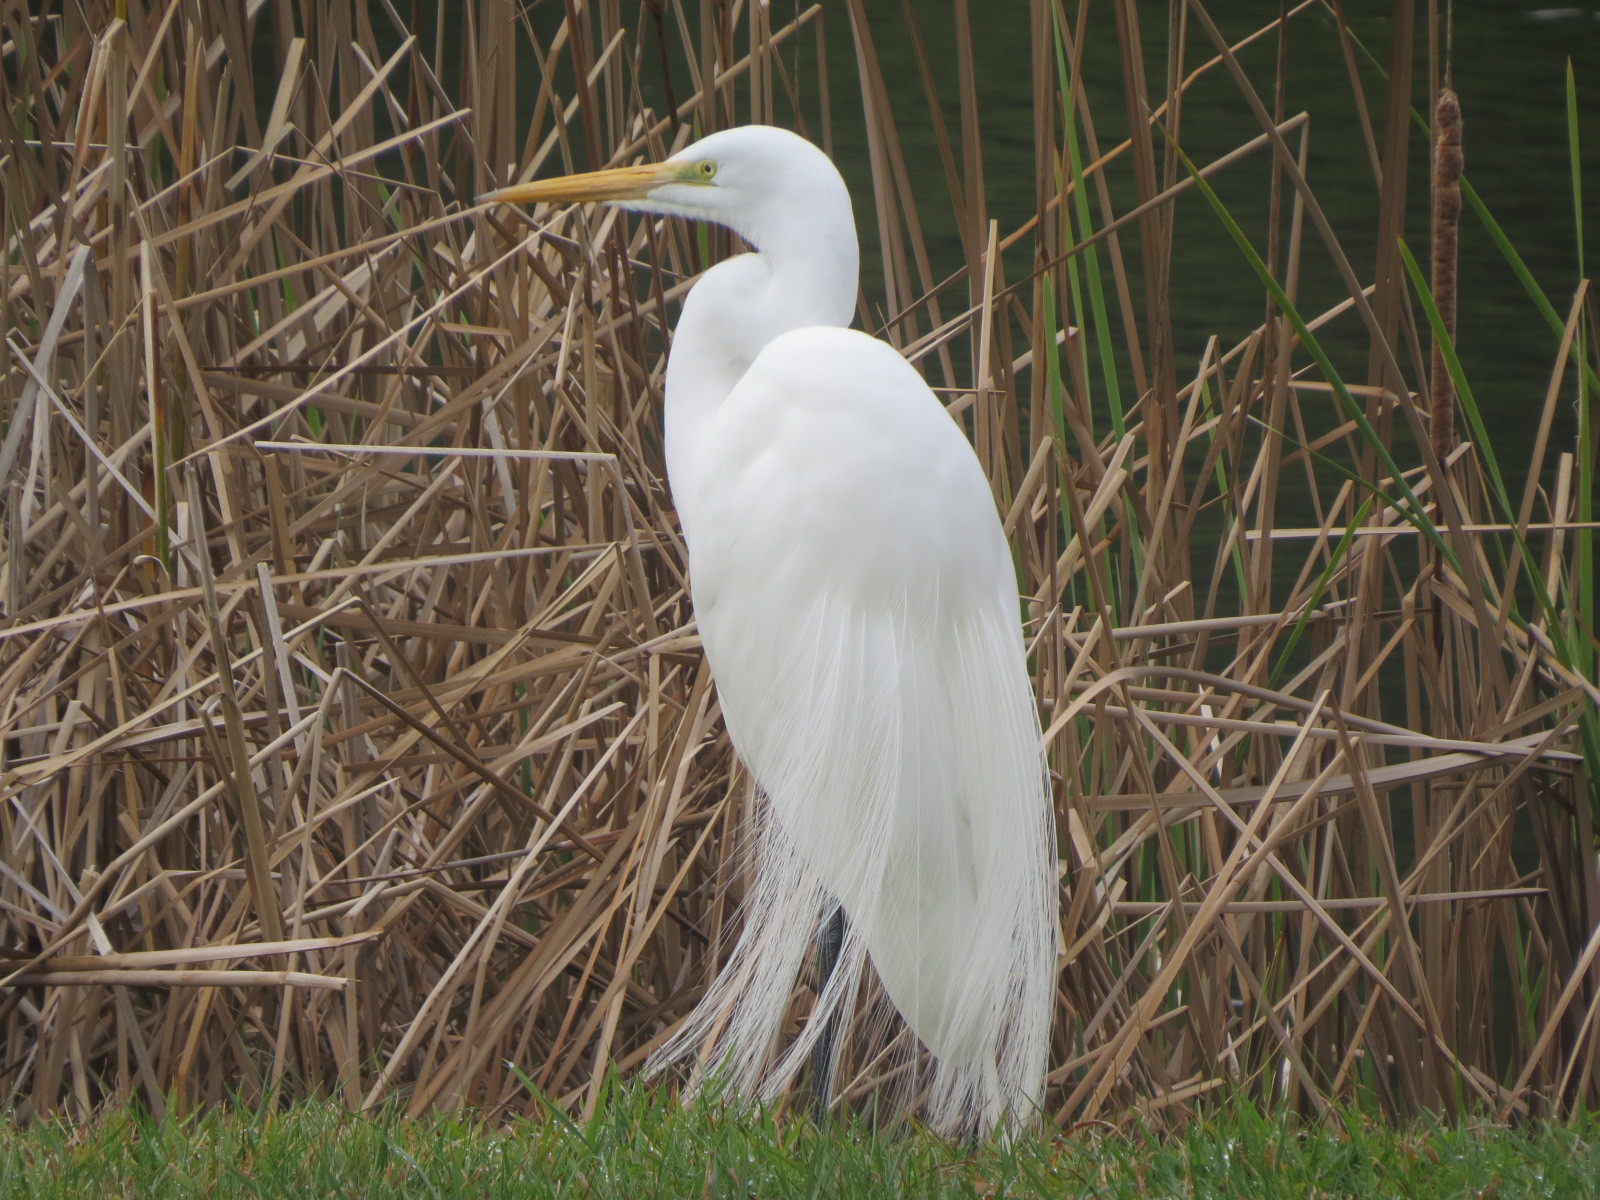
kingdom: Animalia
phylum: Chordata
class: Aves
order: Pelecaniformes
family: Ardeidae
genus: Ardea
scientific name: Ardea alba
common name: Great egret
